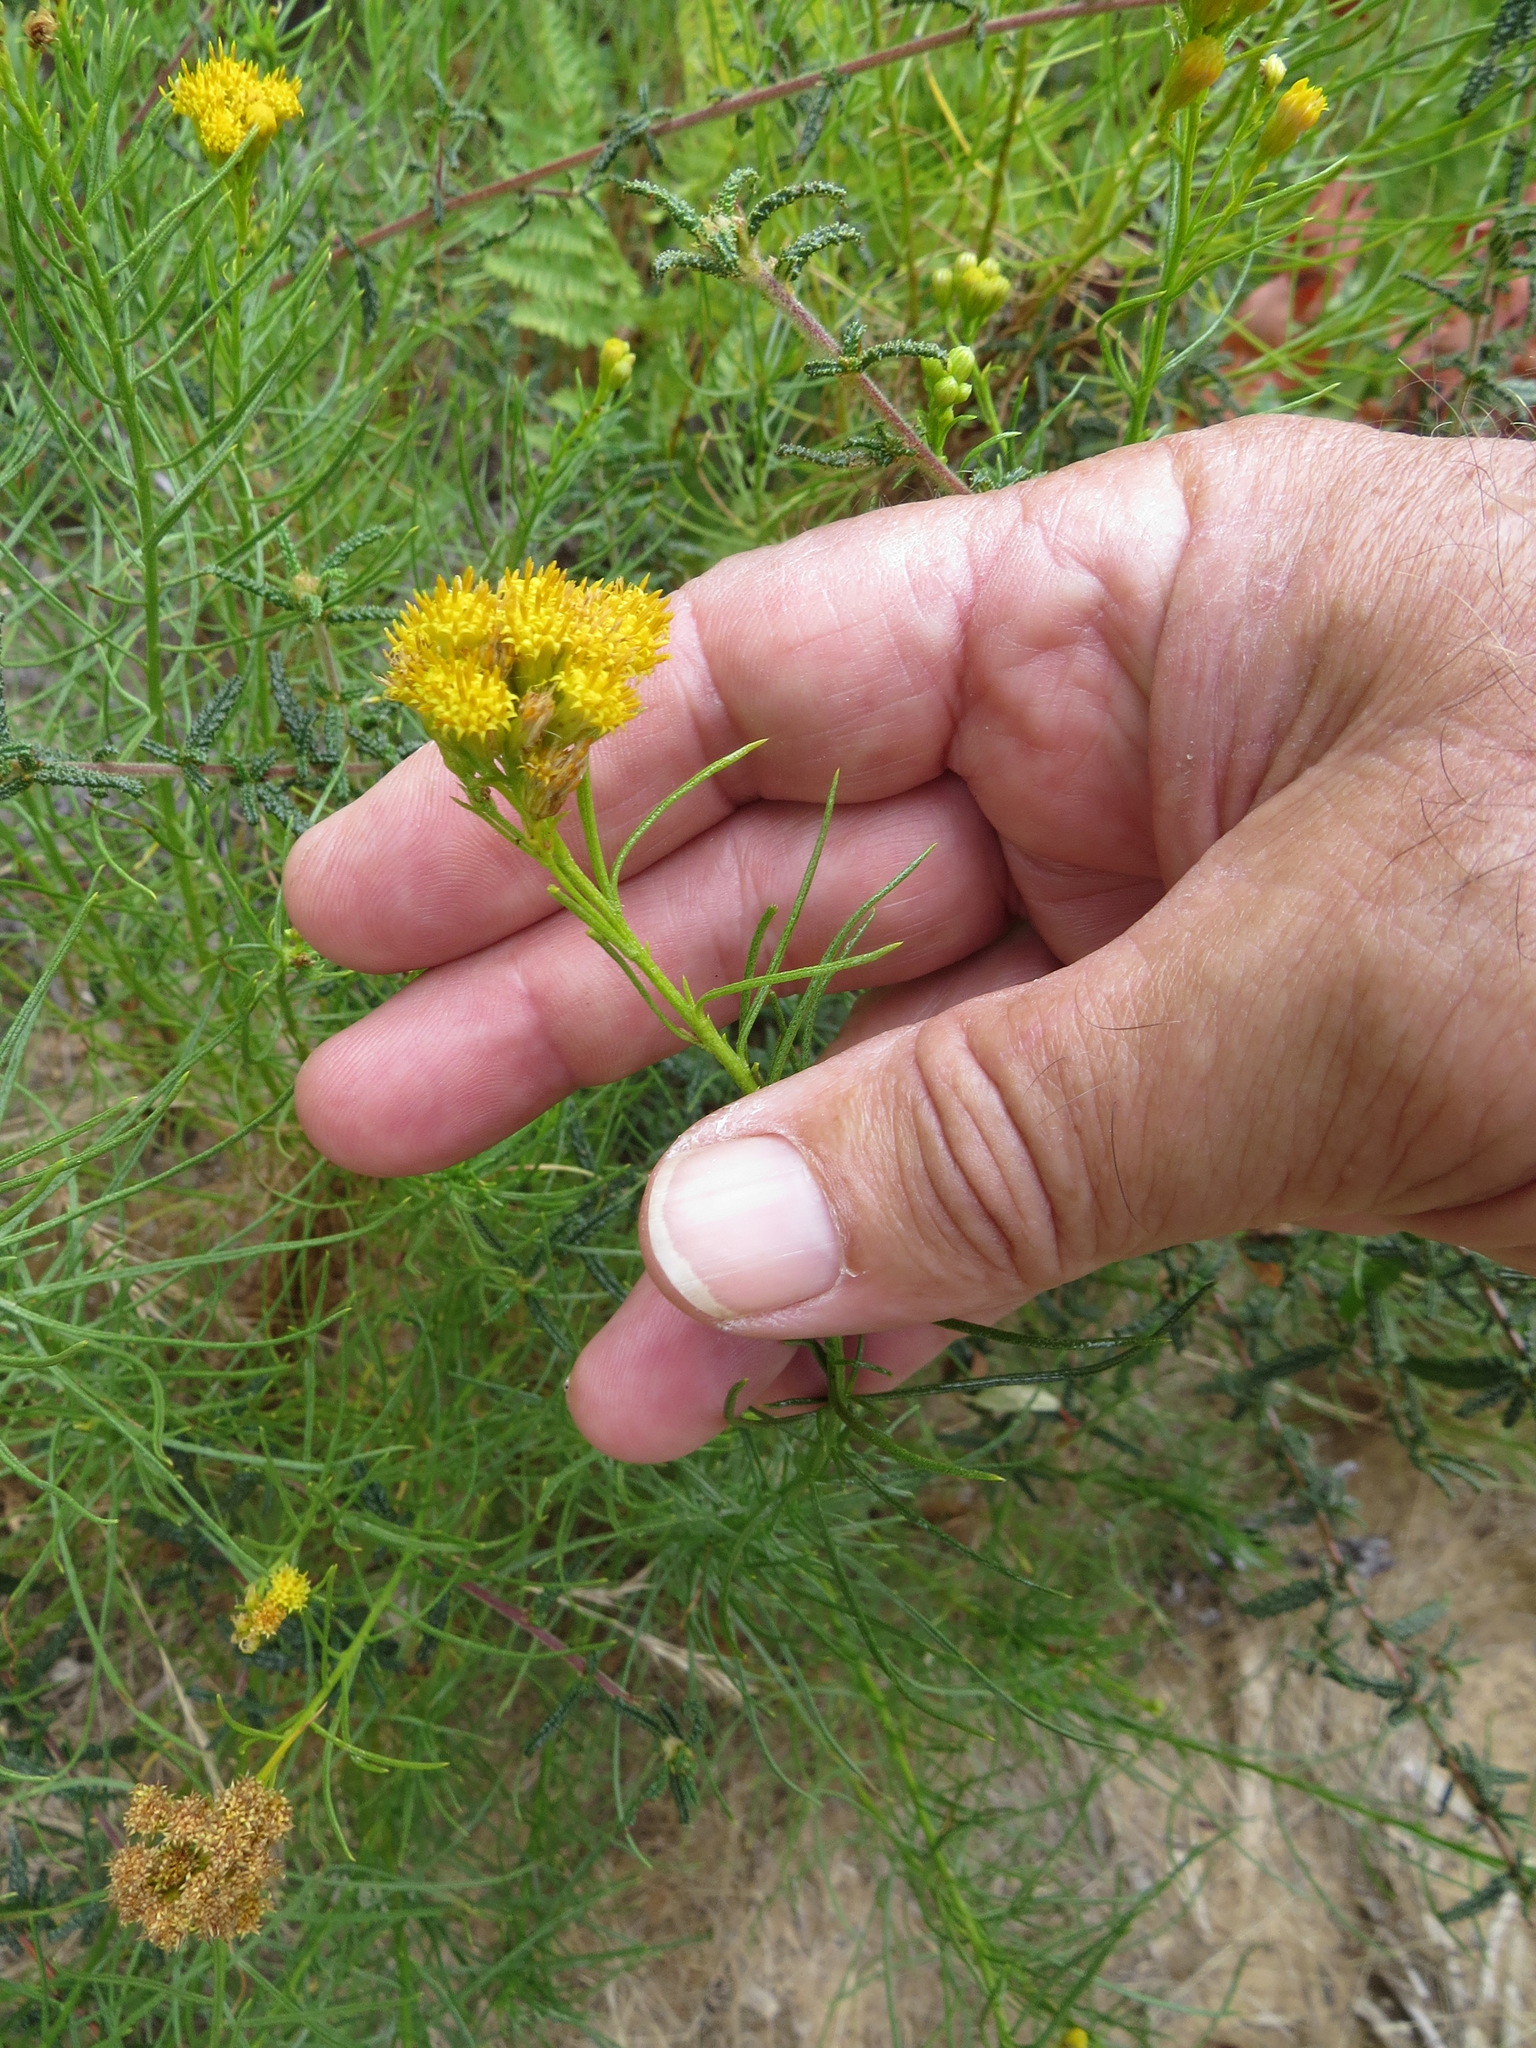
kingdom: Plantae
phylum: Tracheophyta
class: Magnoliopsida
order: Asterales
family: Asteraceae
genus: Ericameria
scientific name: Ericameria arborescens
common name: Goldenfleece
